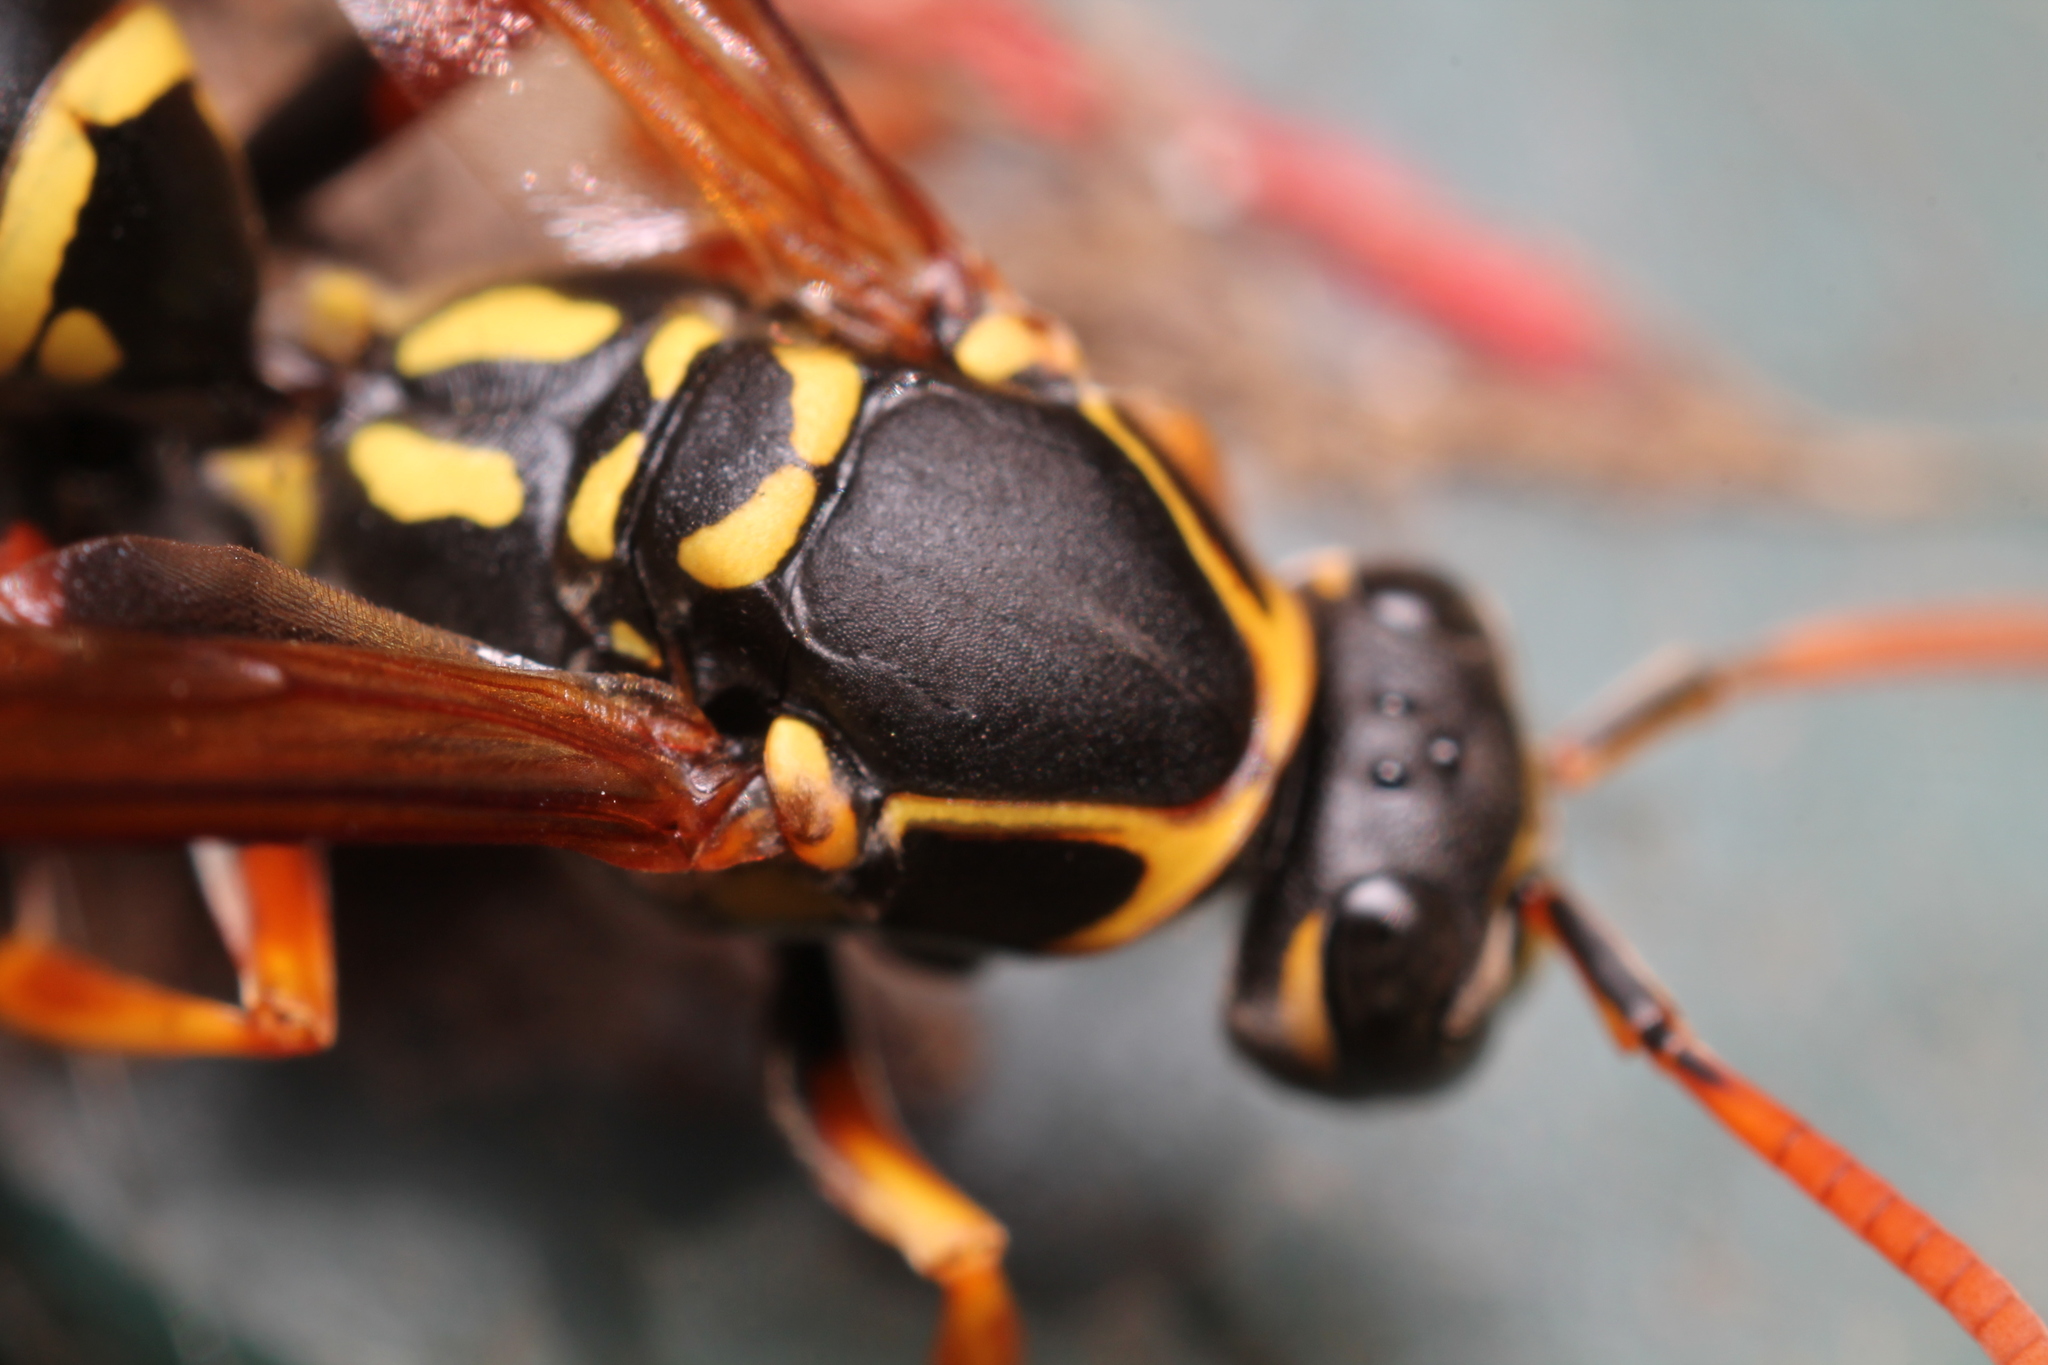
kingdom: Animalia
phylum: Arthropoda
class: Insecta
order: Hymenoptera
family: Eumenidae
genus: Polistes
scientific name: Polistes chinensis
